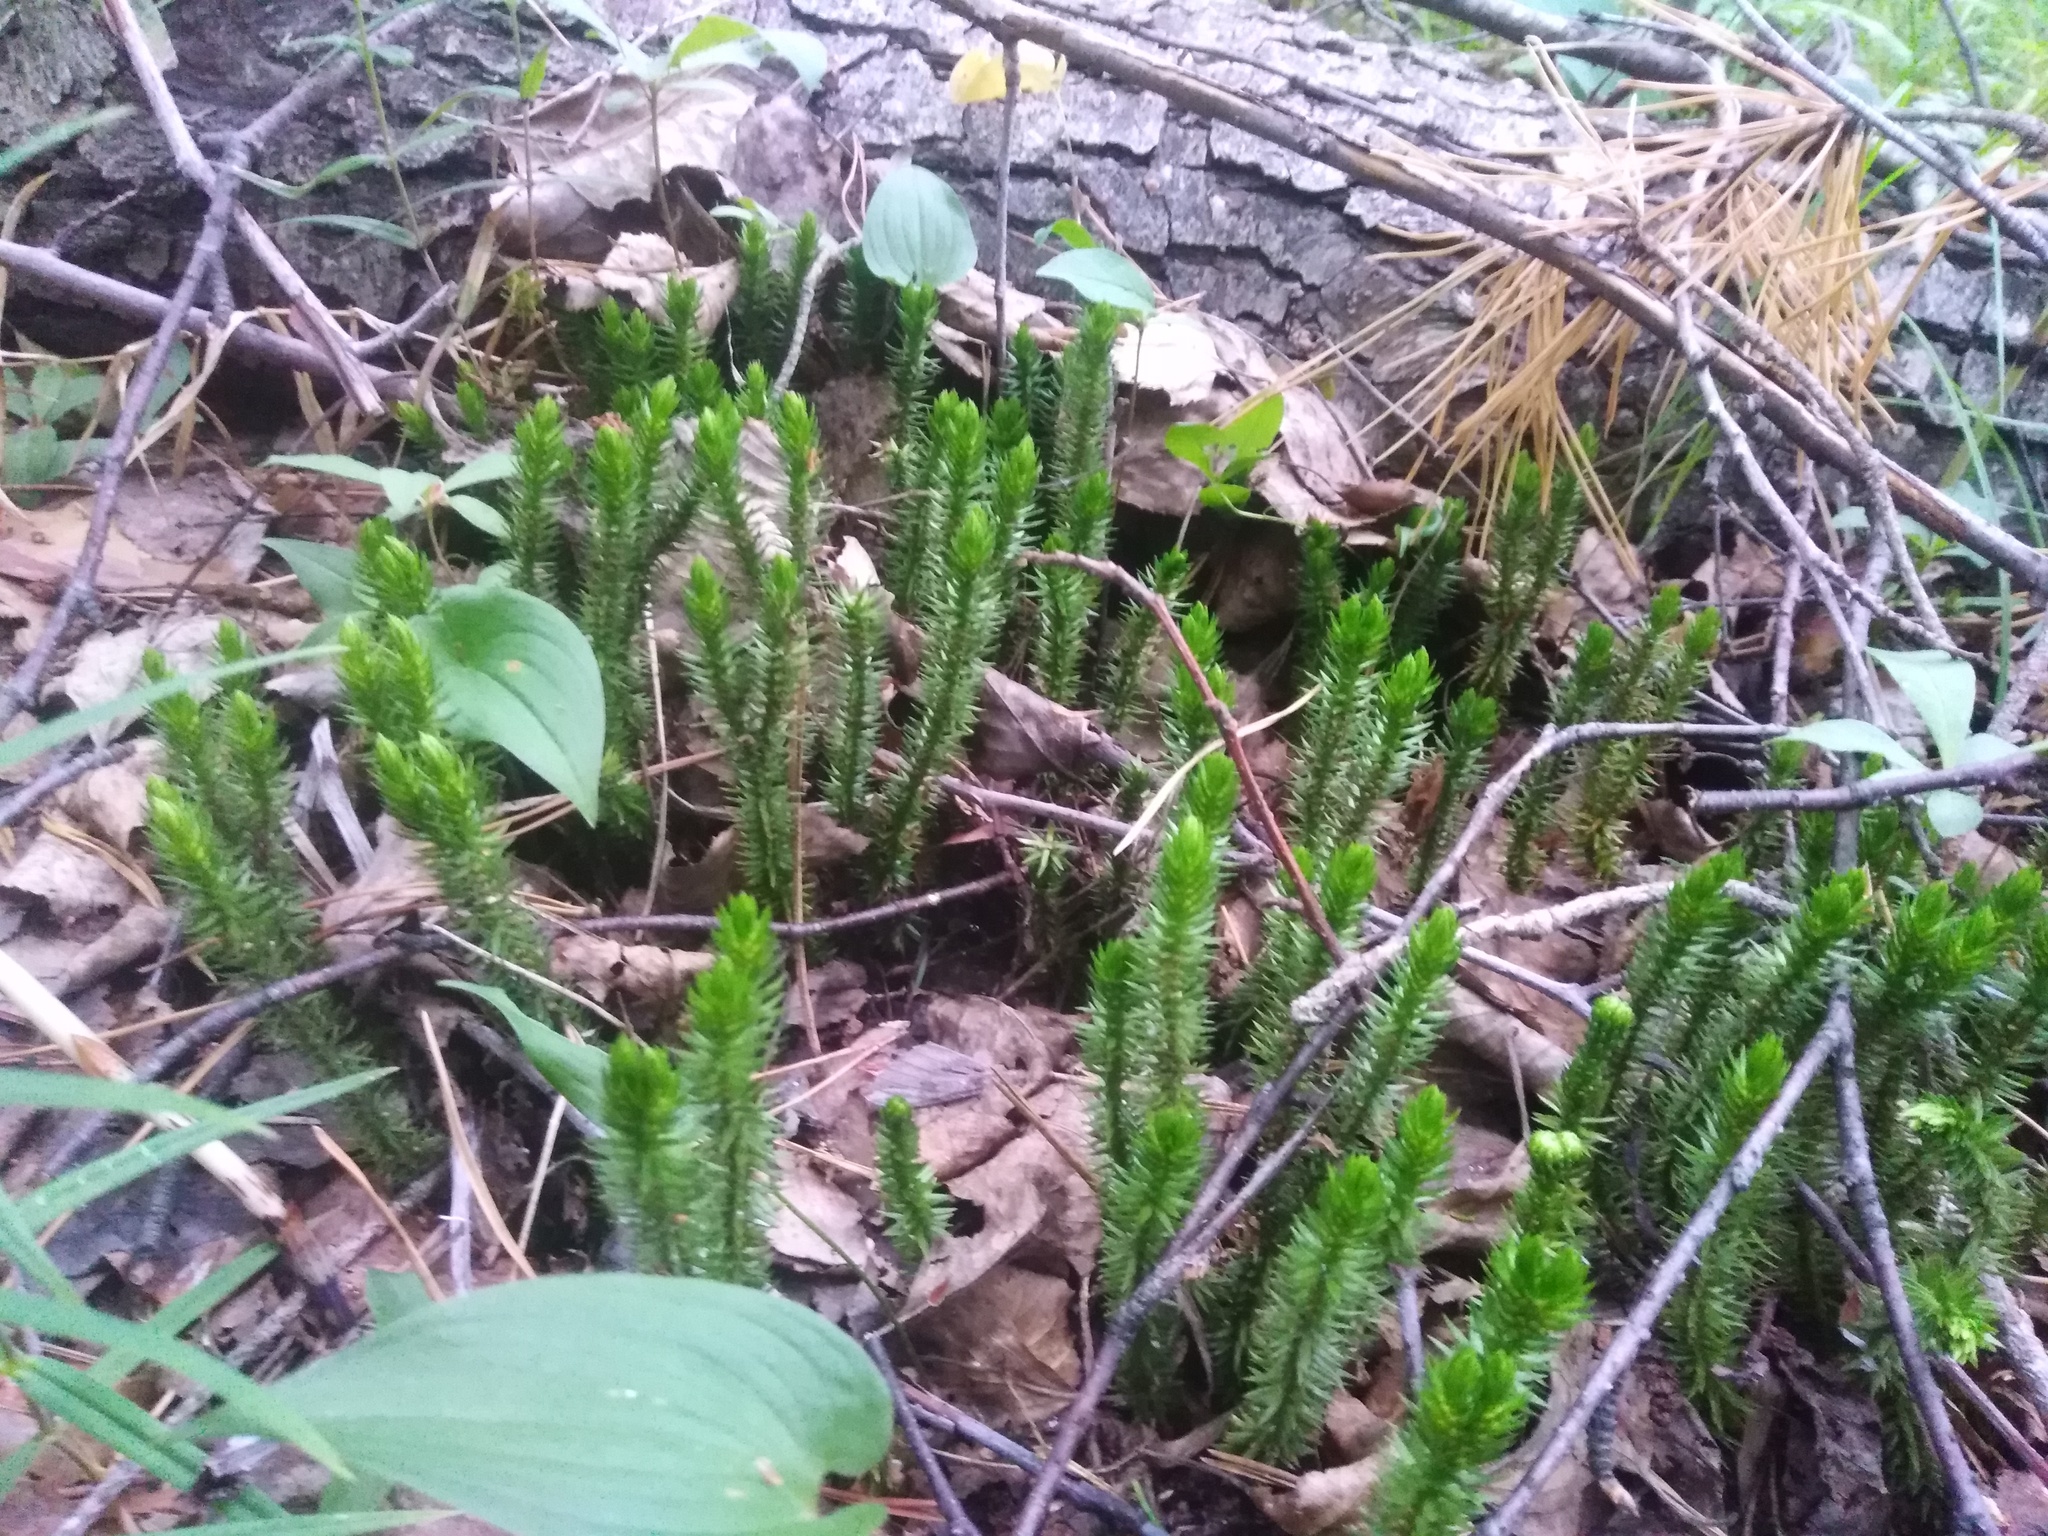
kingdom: Plantae
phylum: Tracheophyta
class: Lycopodiopsida
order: Lycopodiales
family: Lycopodiaceae
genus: Huperzia
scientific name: Huperzia selago
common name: Northern firmoss
